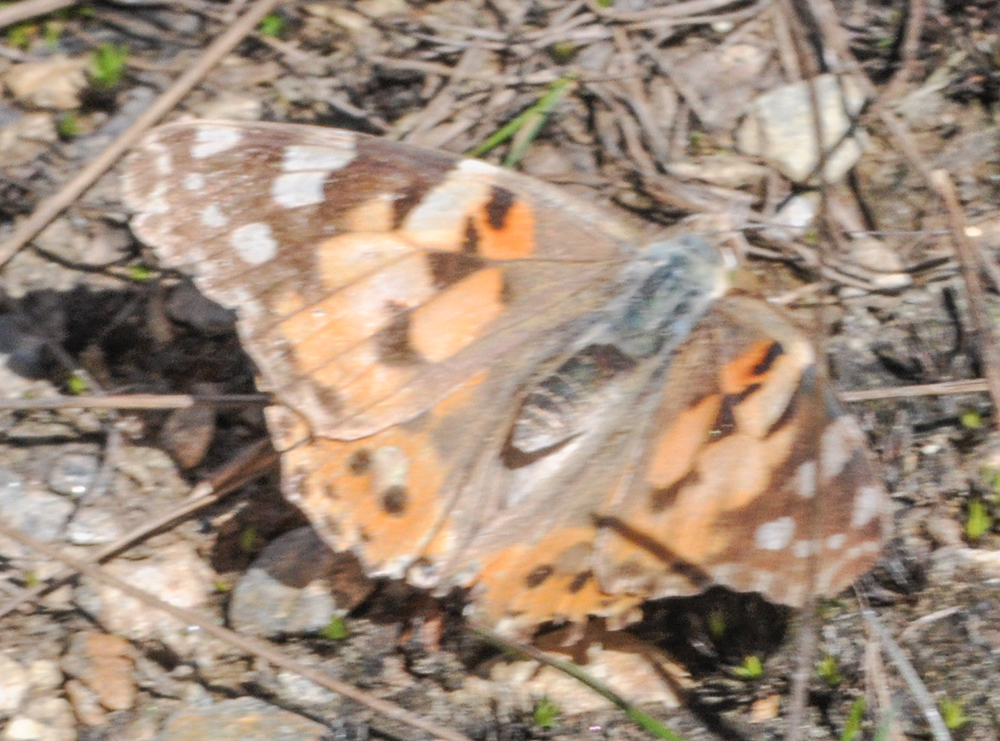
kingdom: Animalia
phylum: Arthropoda
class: Insecta
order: Lepidoptera
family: Nymphalidae
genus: Vanessa
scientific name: Vanessa cardui
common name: Painted lady
